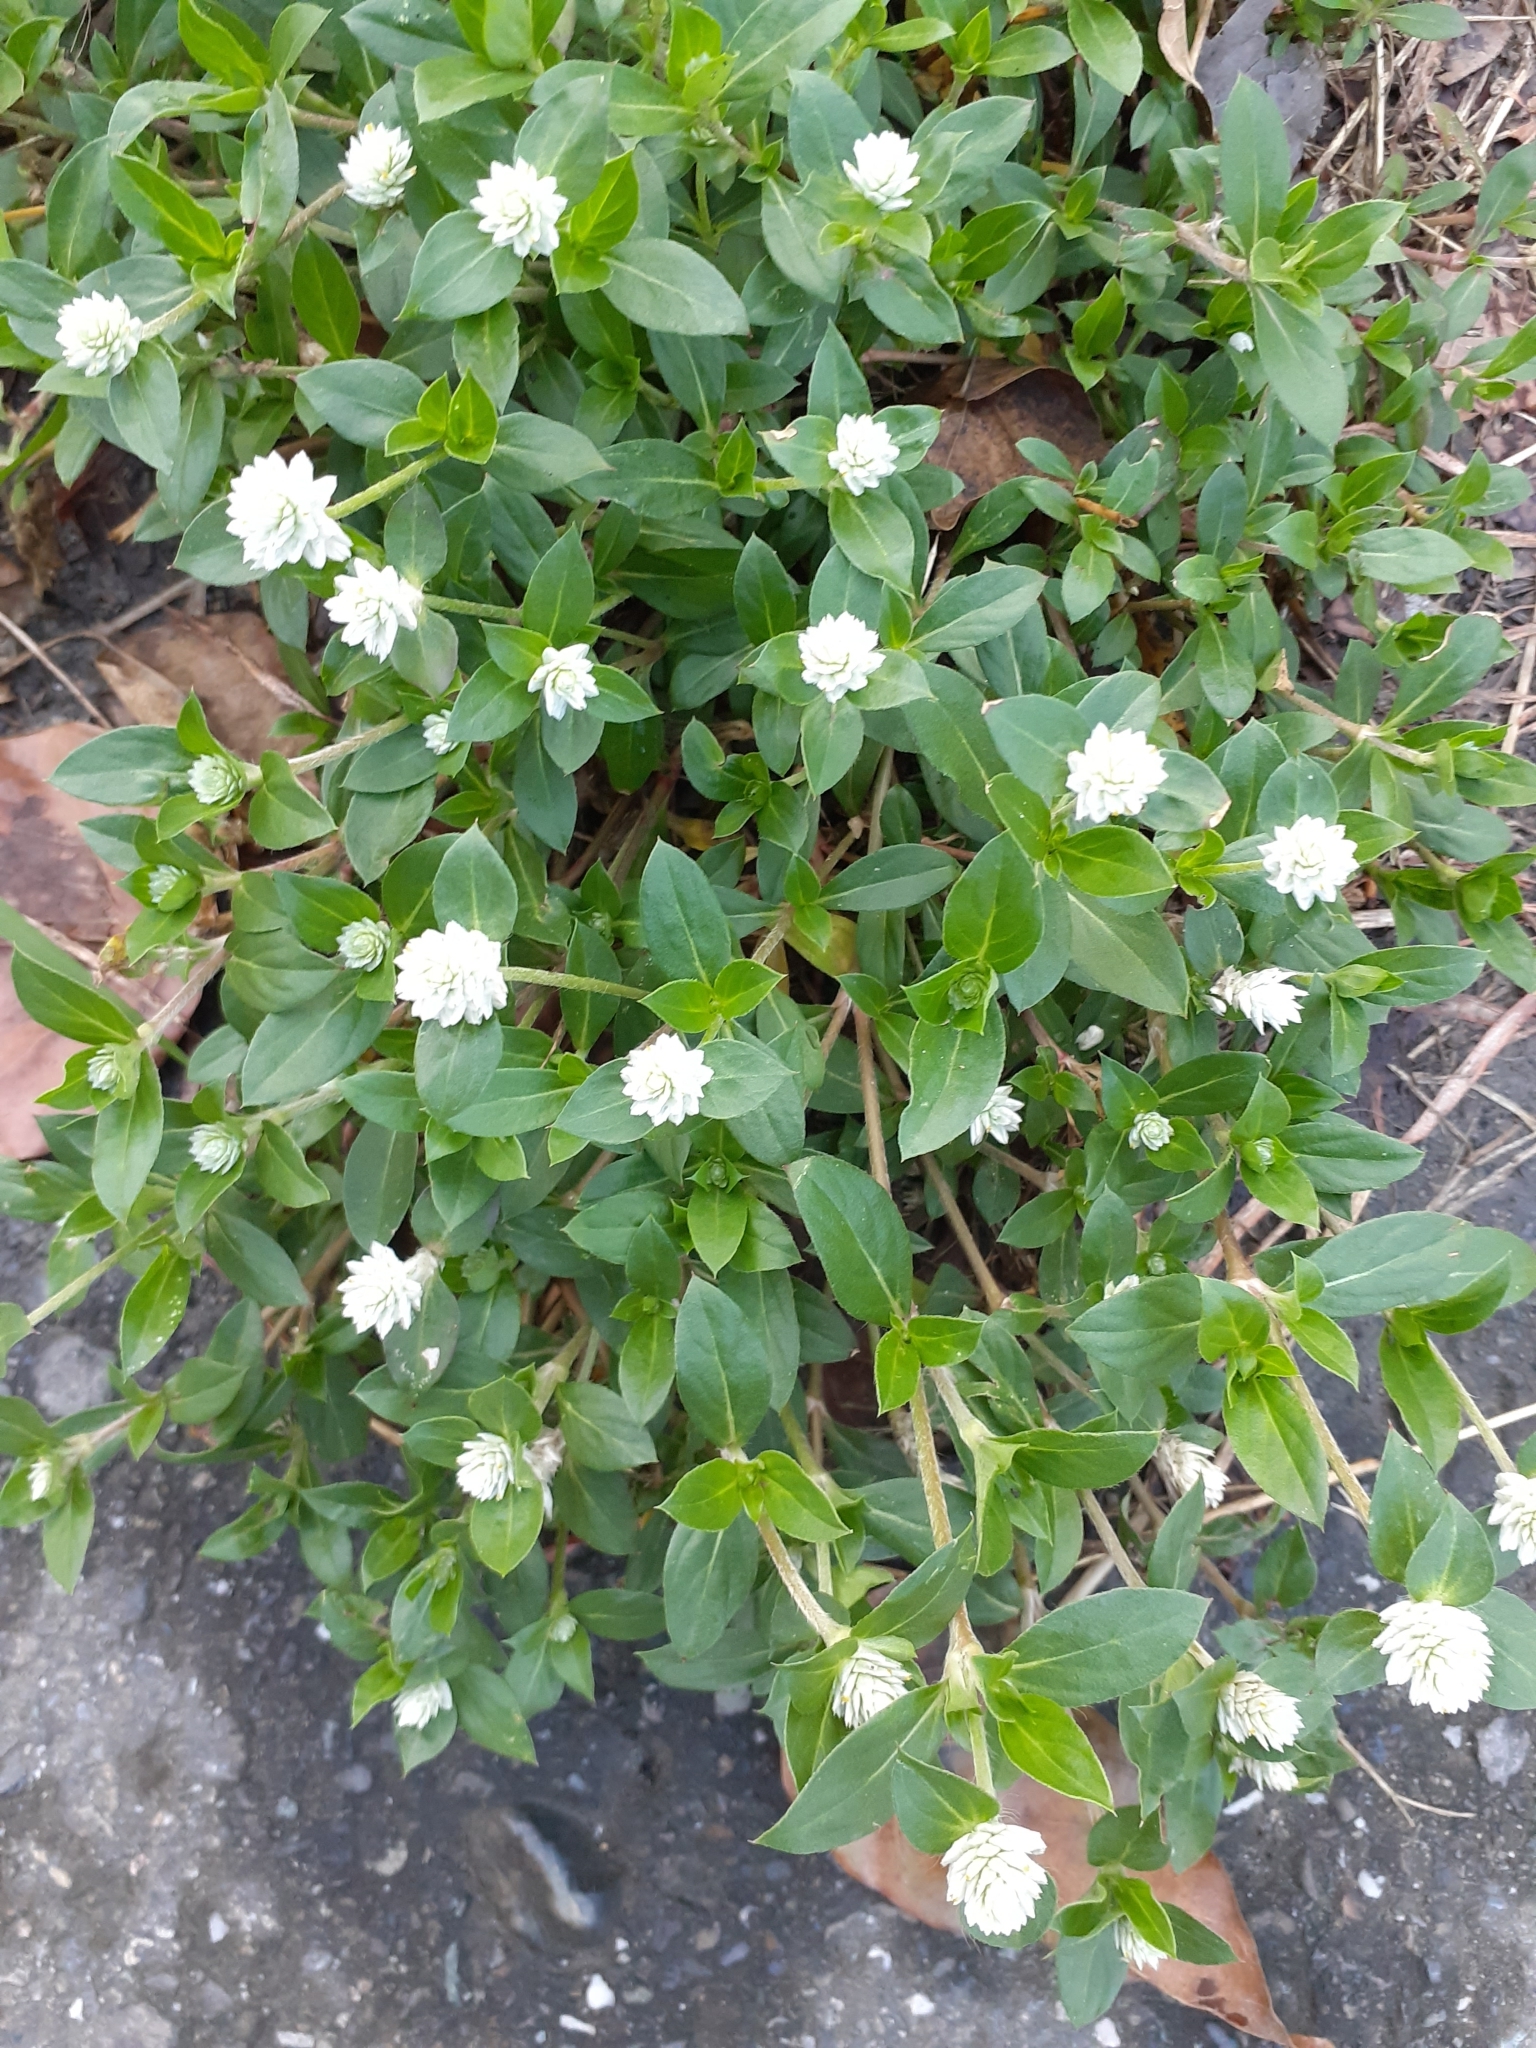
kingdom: Plantae
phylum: Tracheophyta
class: Magnoliopsida
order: Caryophyllales
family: Amaranthaceae
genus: Gomphrena
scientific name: Gomphrena serrata
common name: Arrasa con todo
